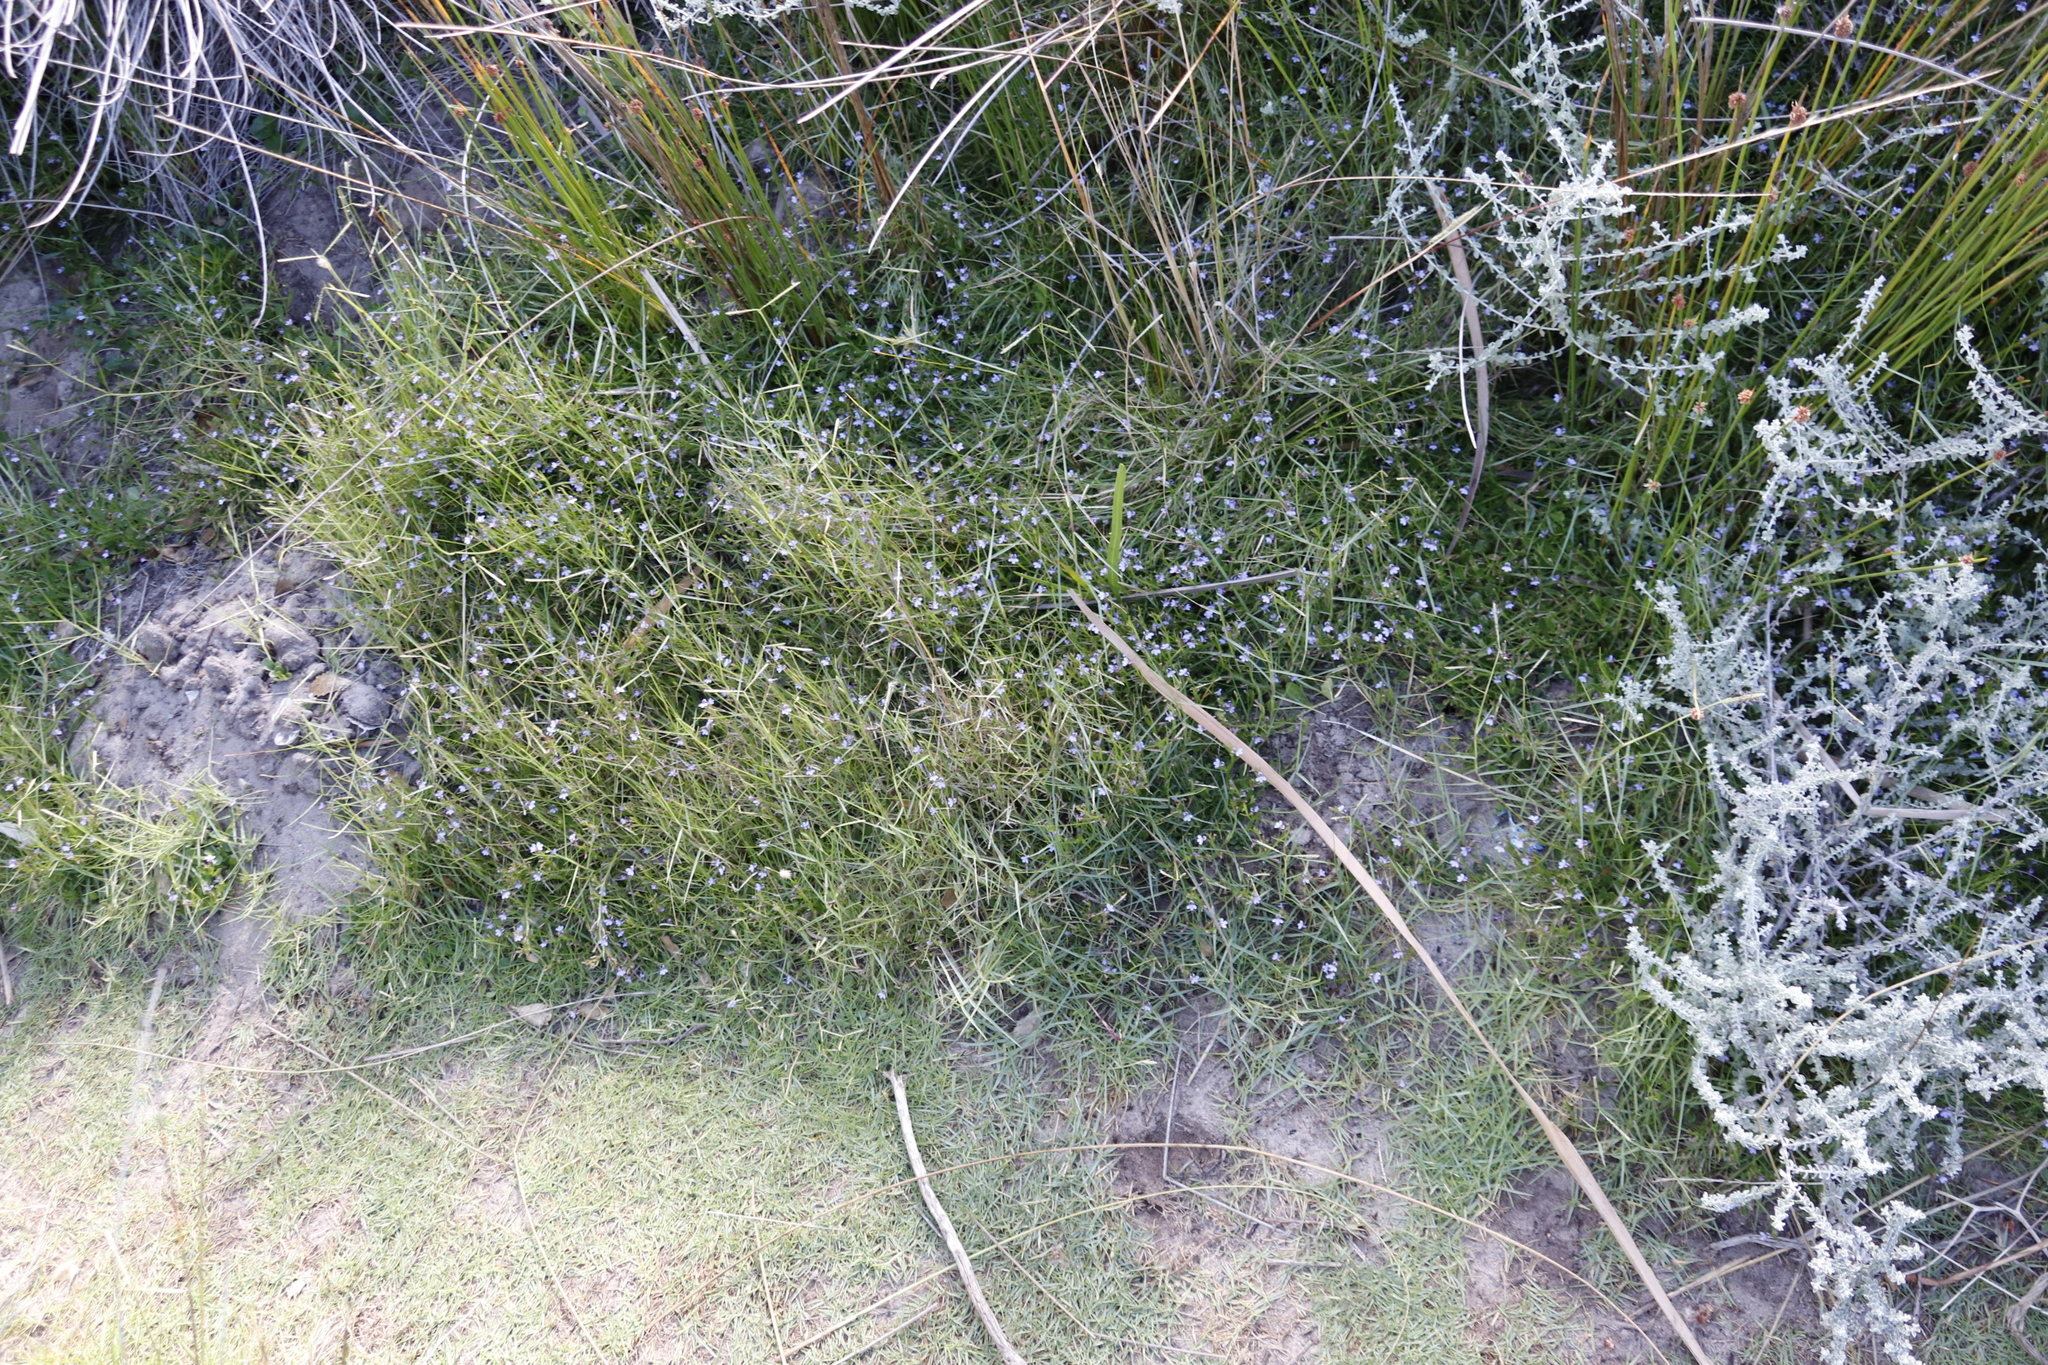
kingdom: Plantae
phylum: Tracheophyta
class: Magnoliopsida
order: Asterales
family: Campanulaceae
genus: Lobelia
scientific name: Lobelia anceps
